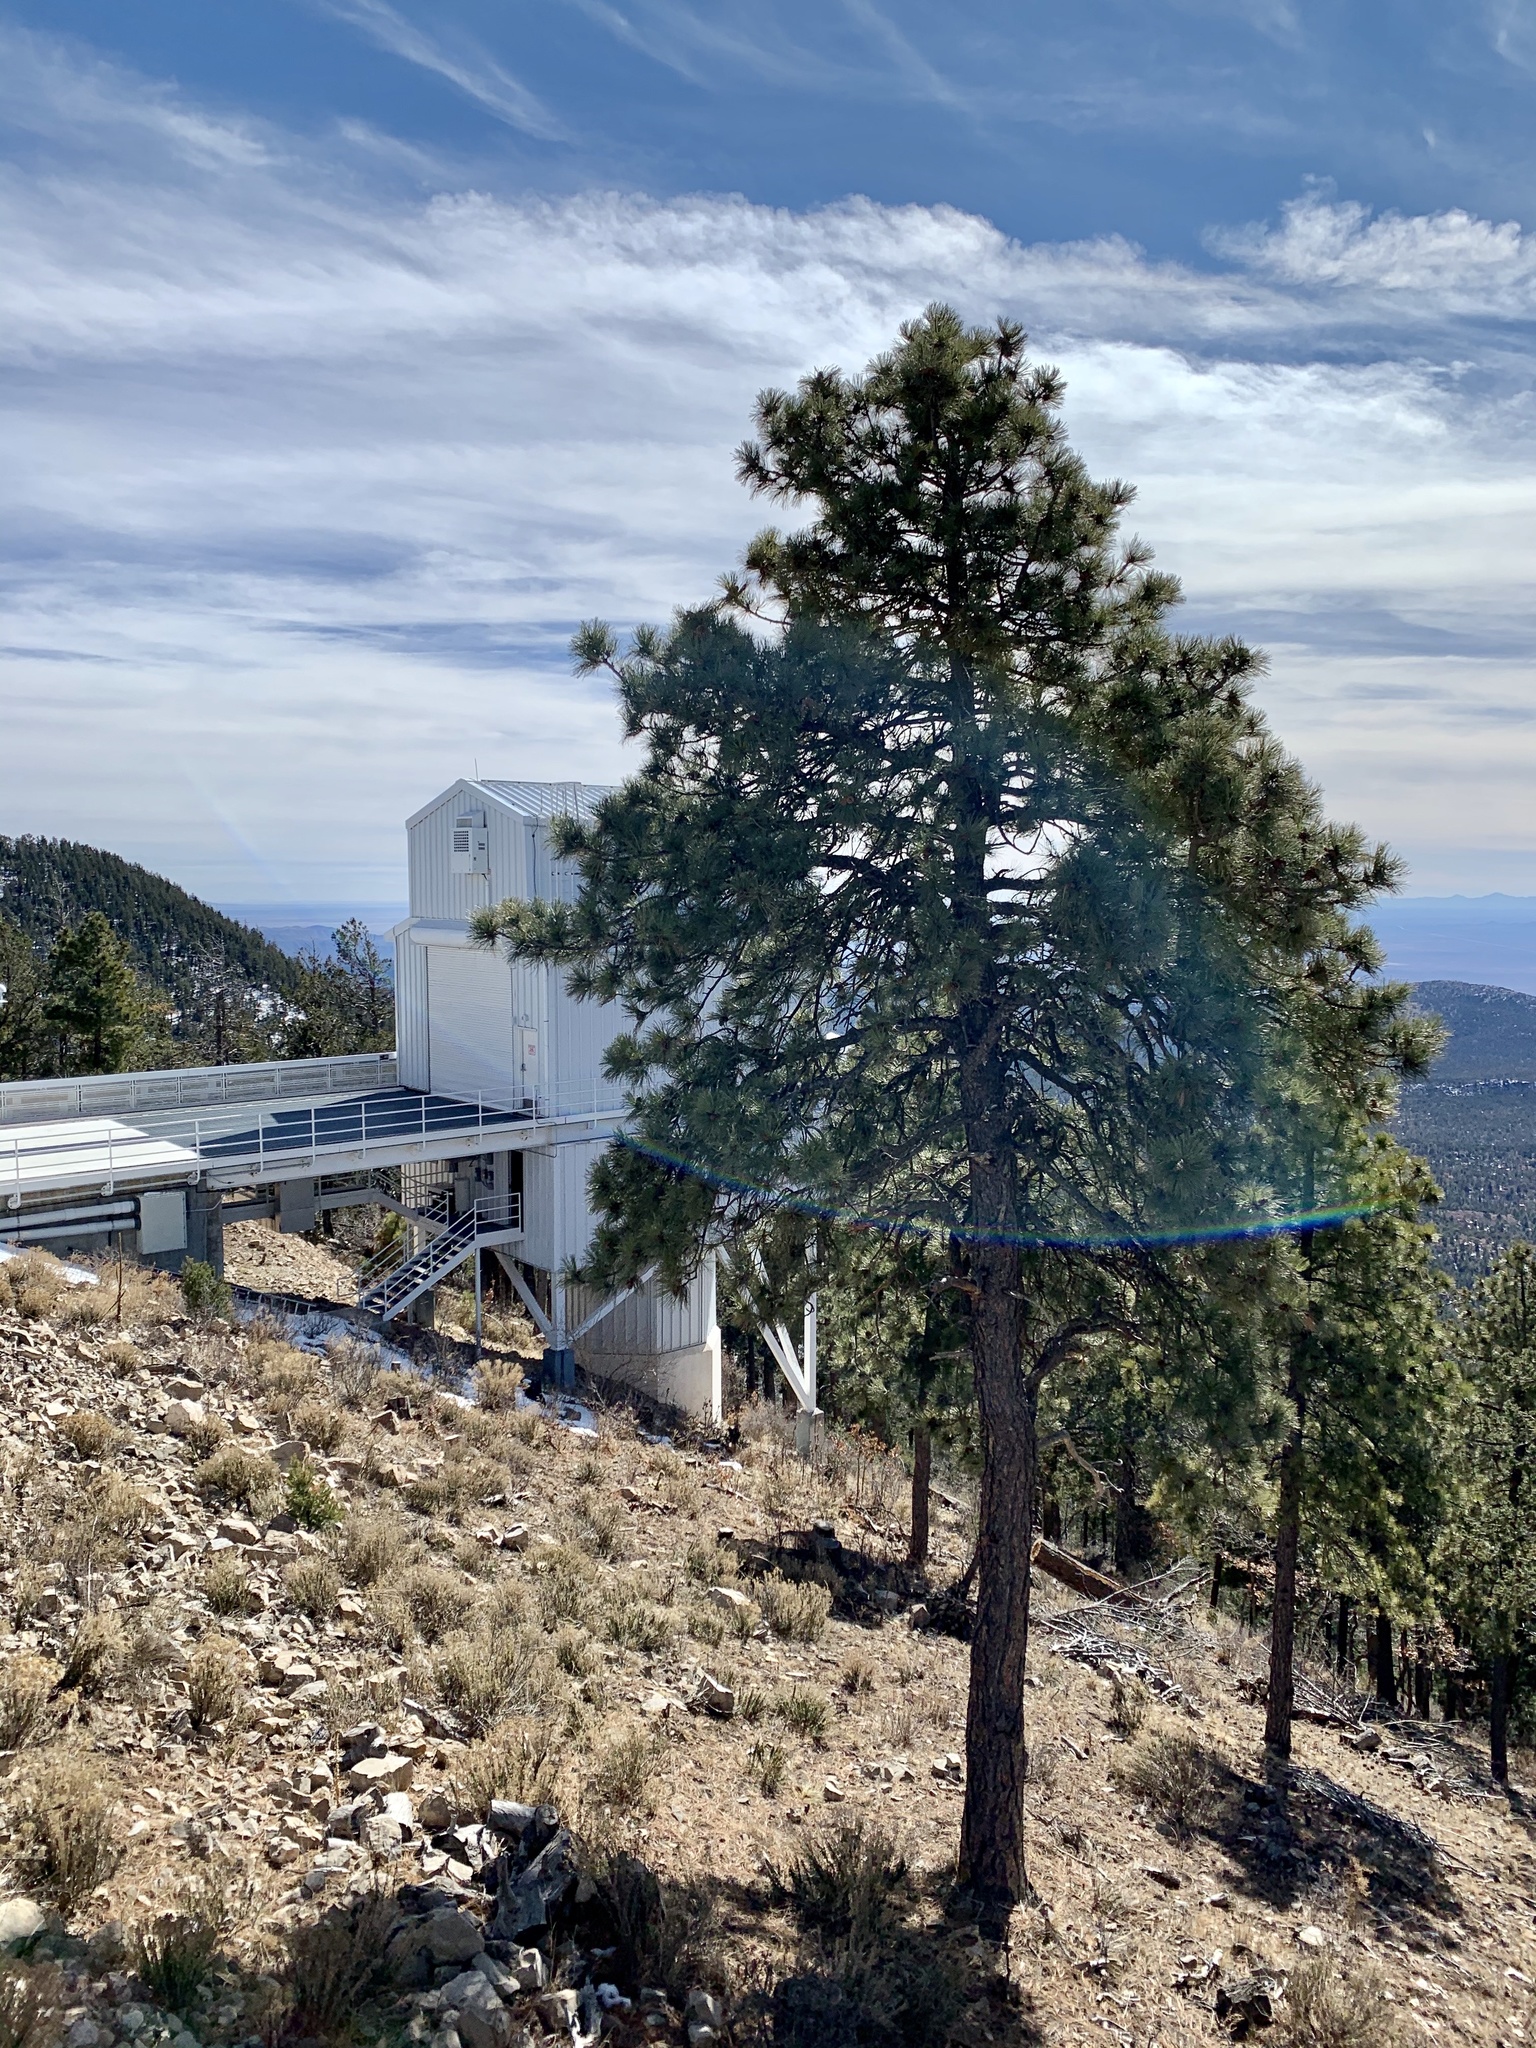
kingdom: Plantae
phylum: Tracheophyta
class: Pinopsida
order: Pinales
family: Pinaceae
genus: Pinus
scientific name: Pinus ponderosa
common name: Western yellow-pine
